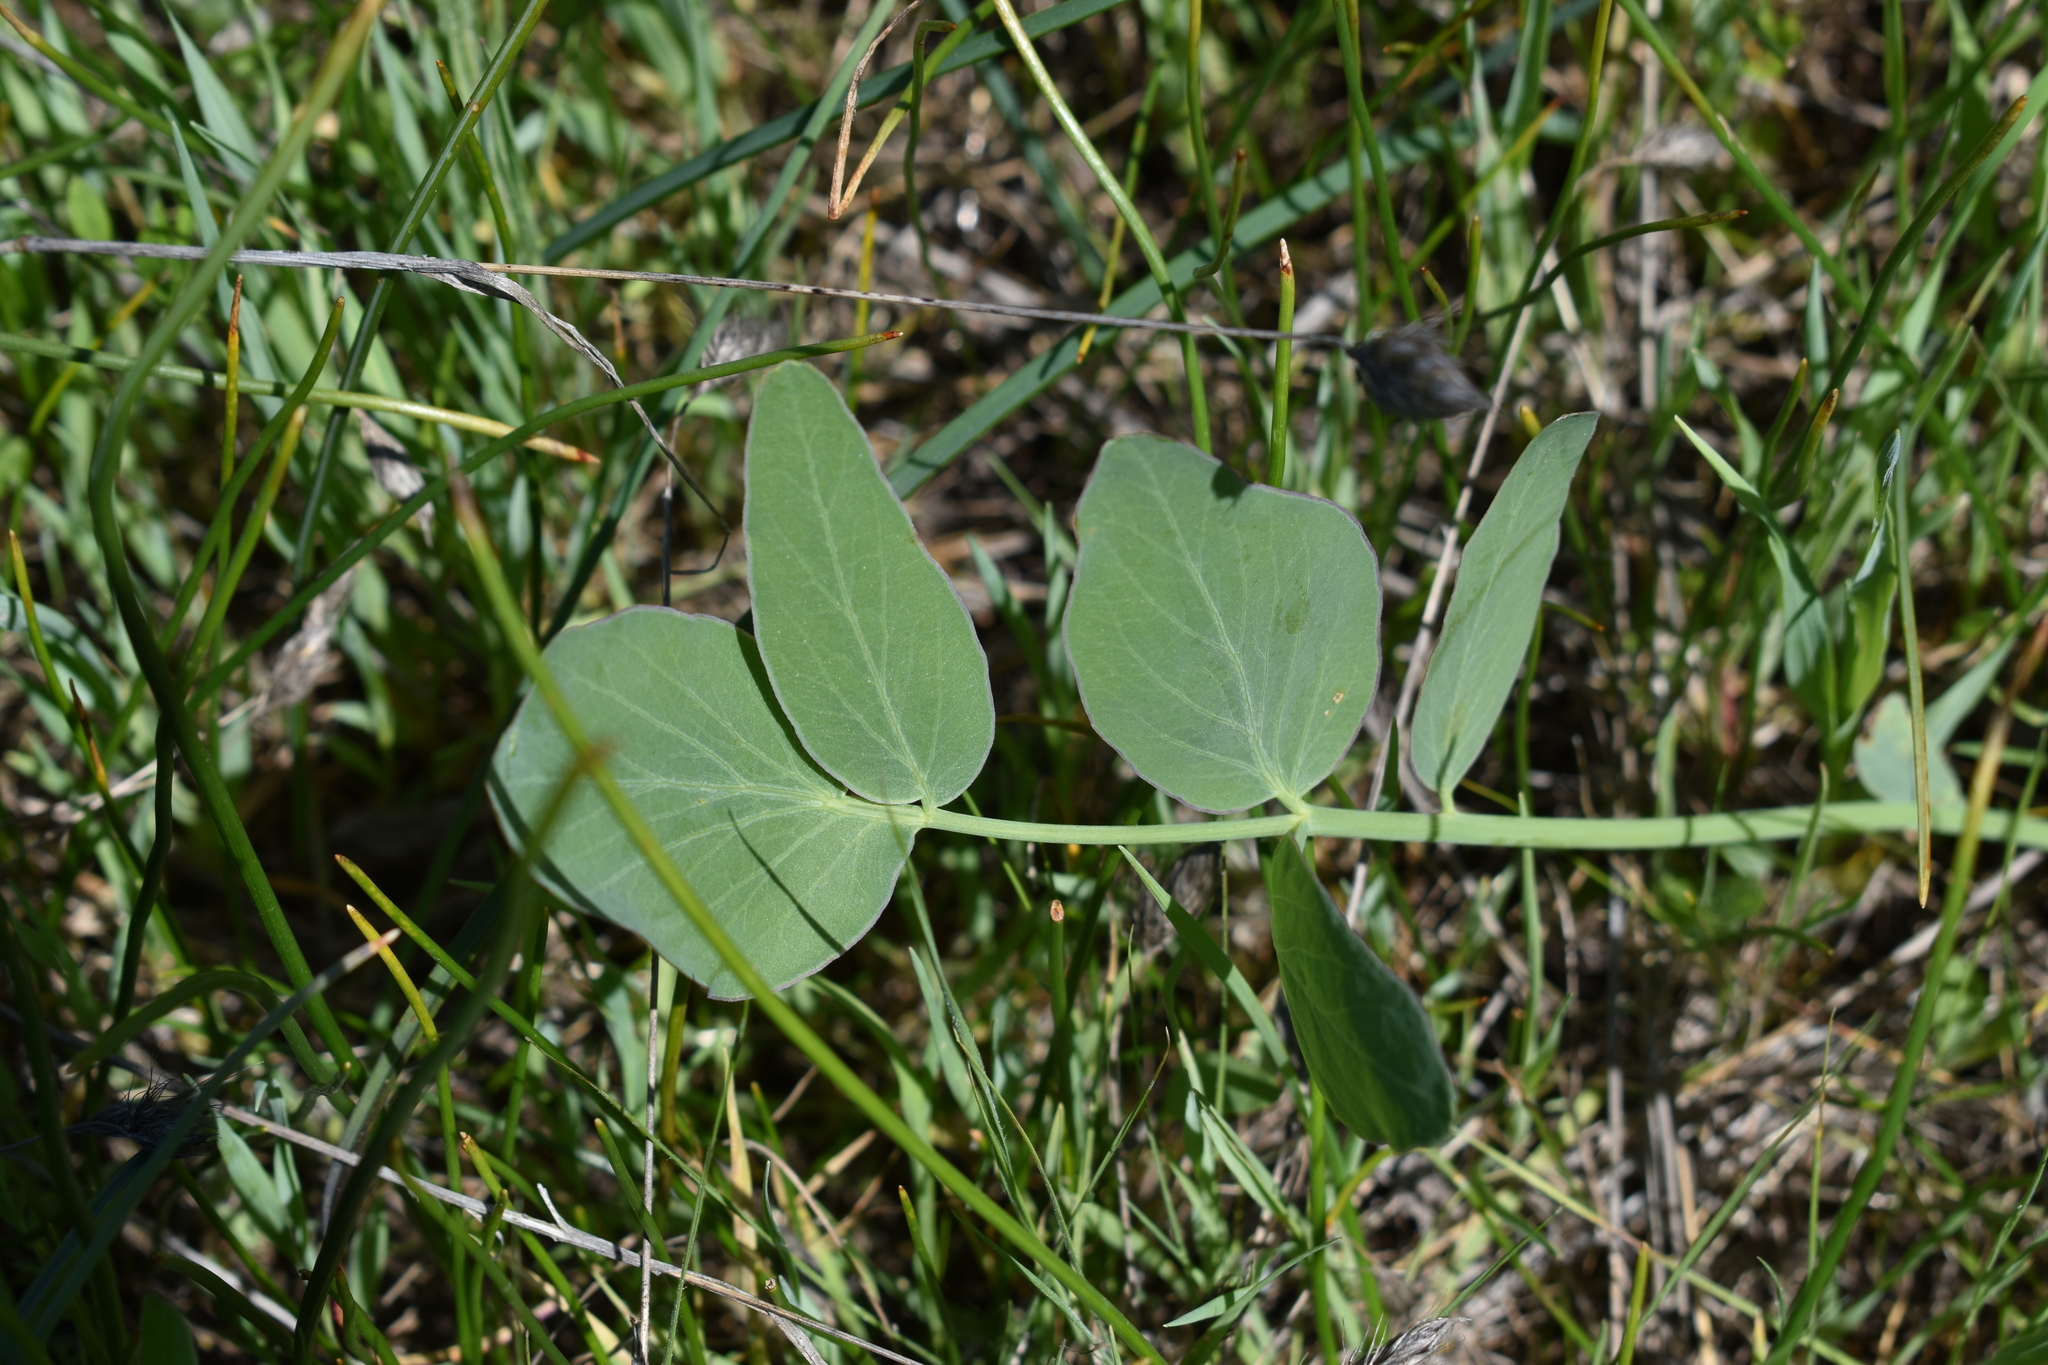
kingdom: Plantae
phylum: Tracheophyta
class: Magnoliopsida
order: Apiales
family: Apiaceae
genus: Lomatium
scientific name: Lomatium nudicaule
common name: Pestle lomatium
